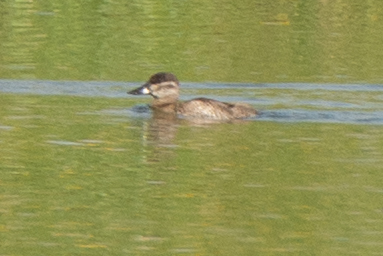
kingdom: Animalia
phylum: Chordata
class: Aves
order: Anseriformes
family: Anatidae
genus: Oxyura
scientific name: Oxyura jamaicensis
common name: Ruddy duck
